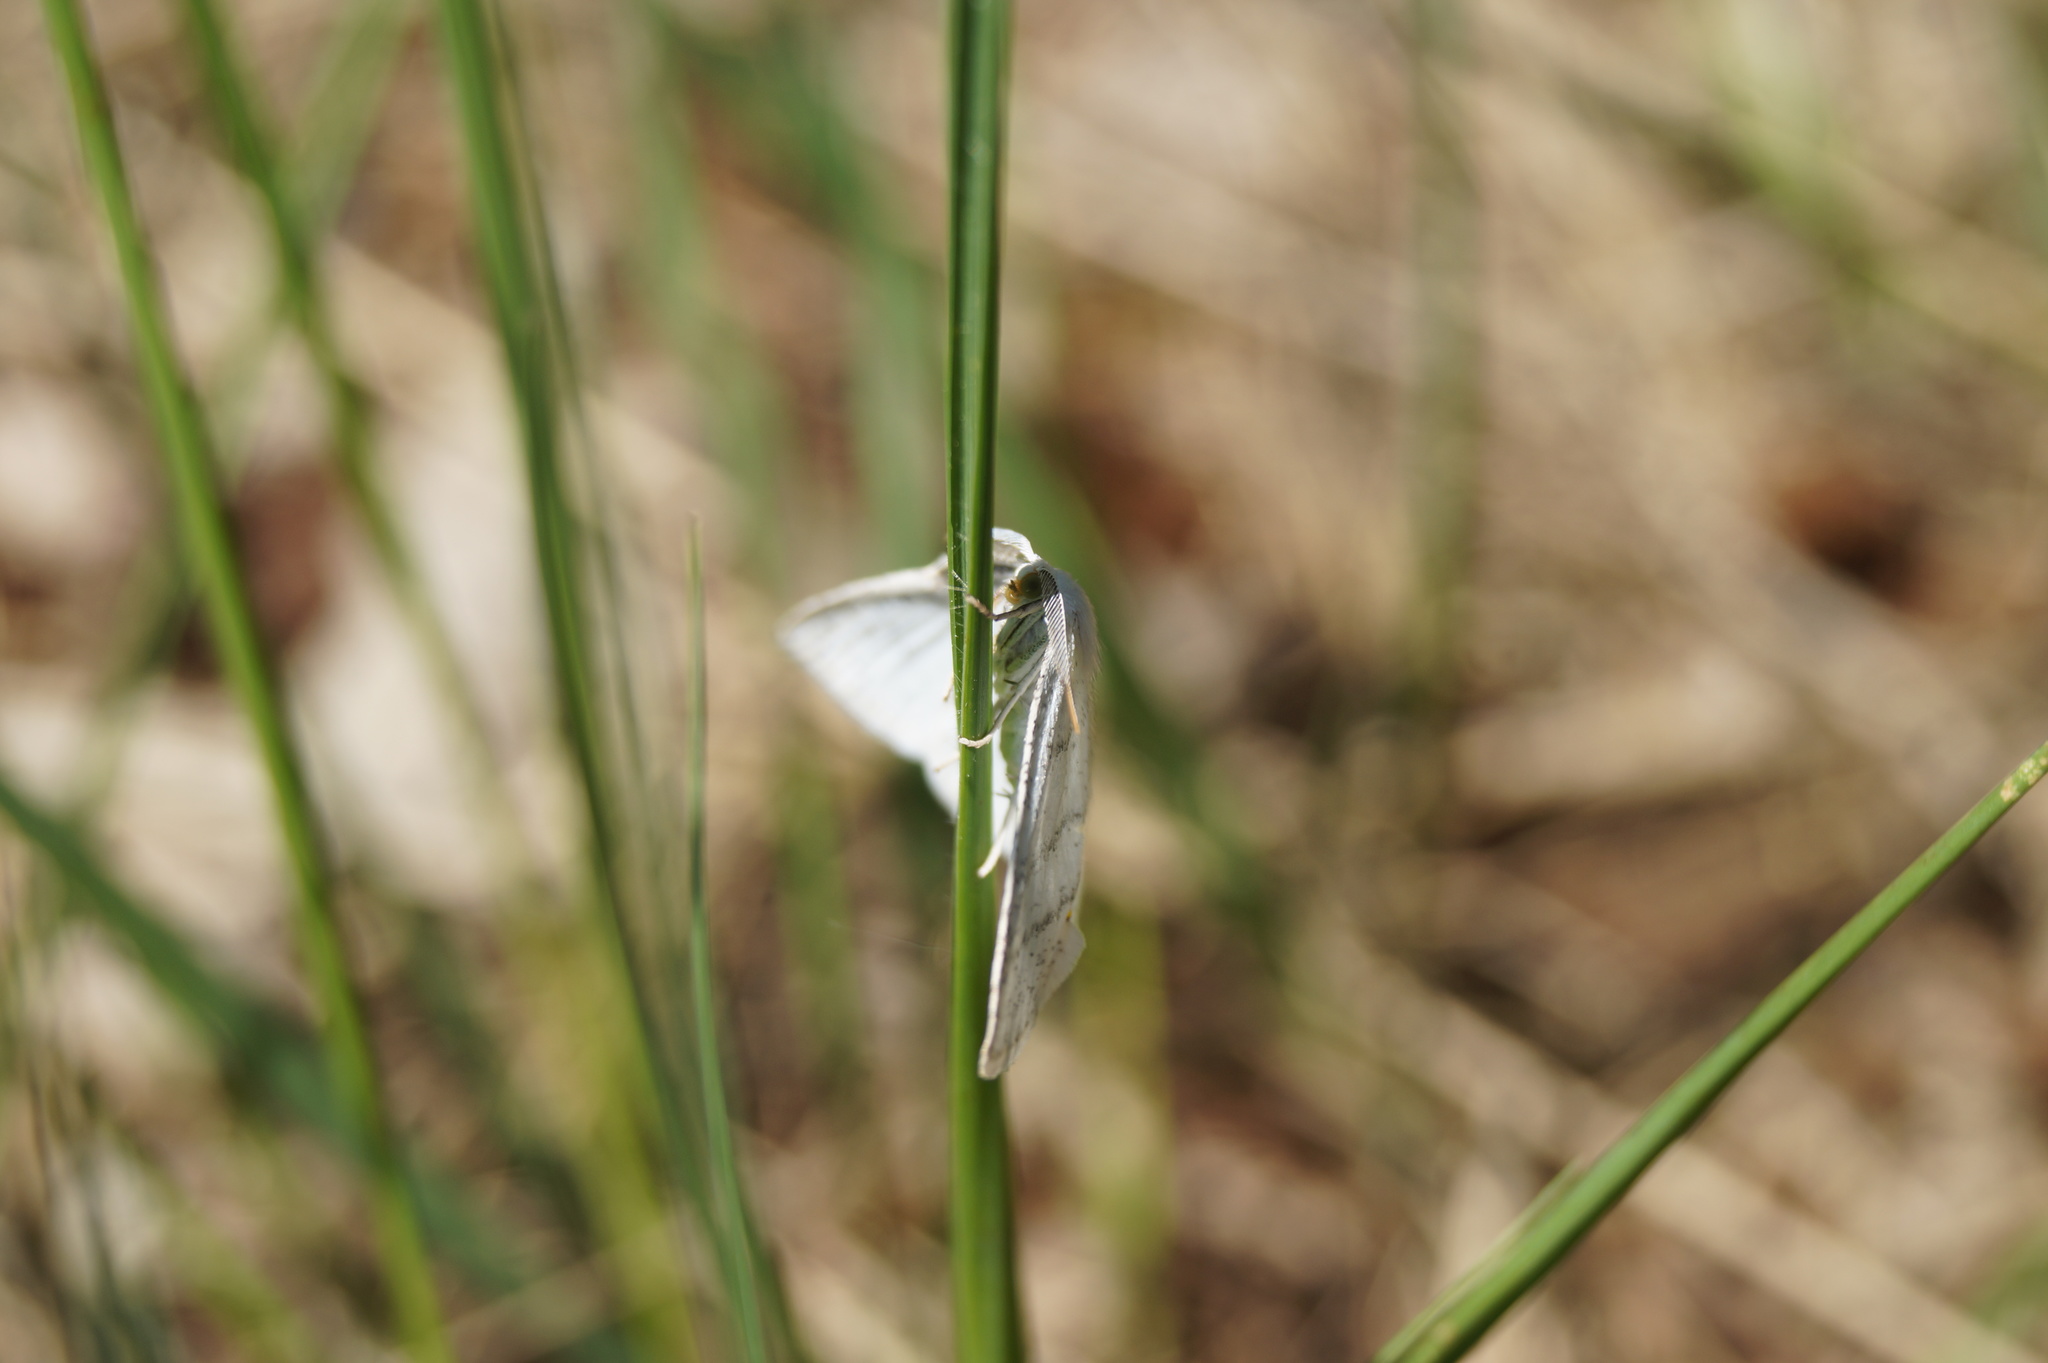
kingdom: Animalia
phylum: Arthropoda
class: Insecta
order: Lepidoptera
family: Geometridae
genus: Cabera
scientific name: Cabera pusaria
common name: Common white wave
